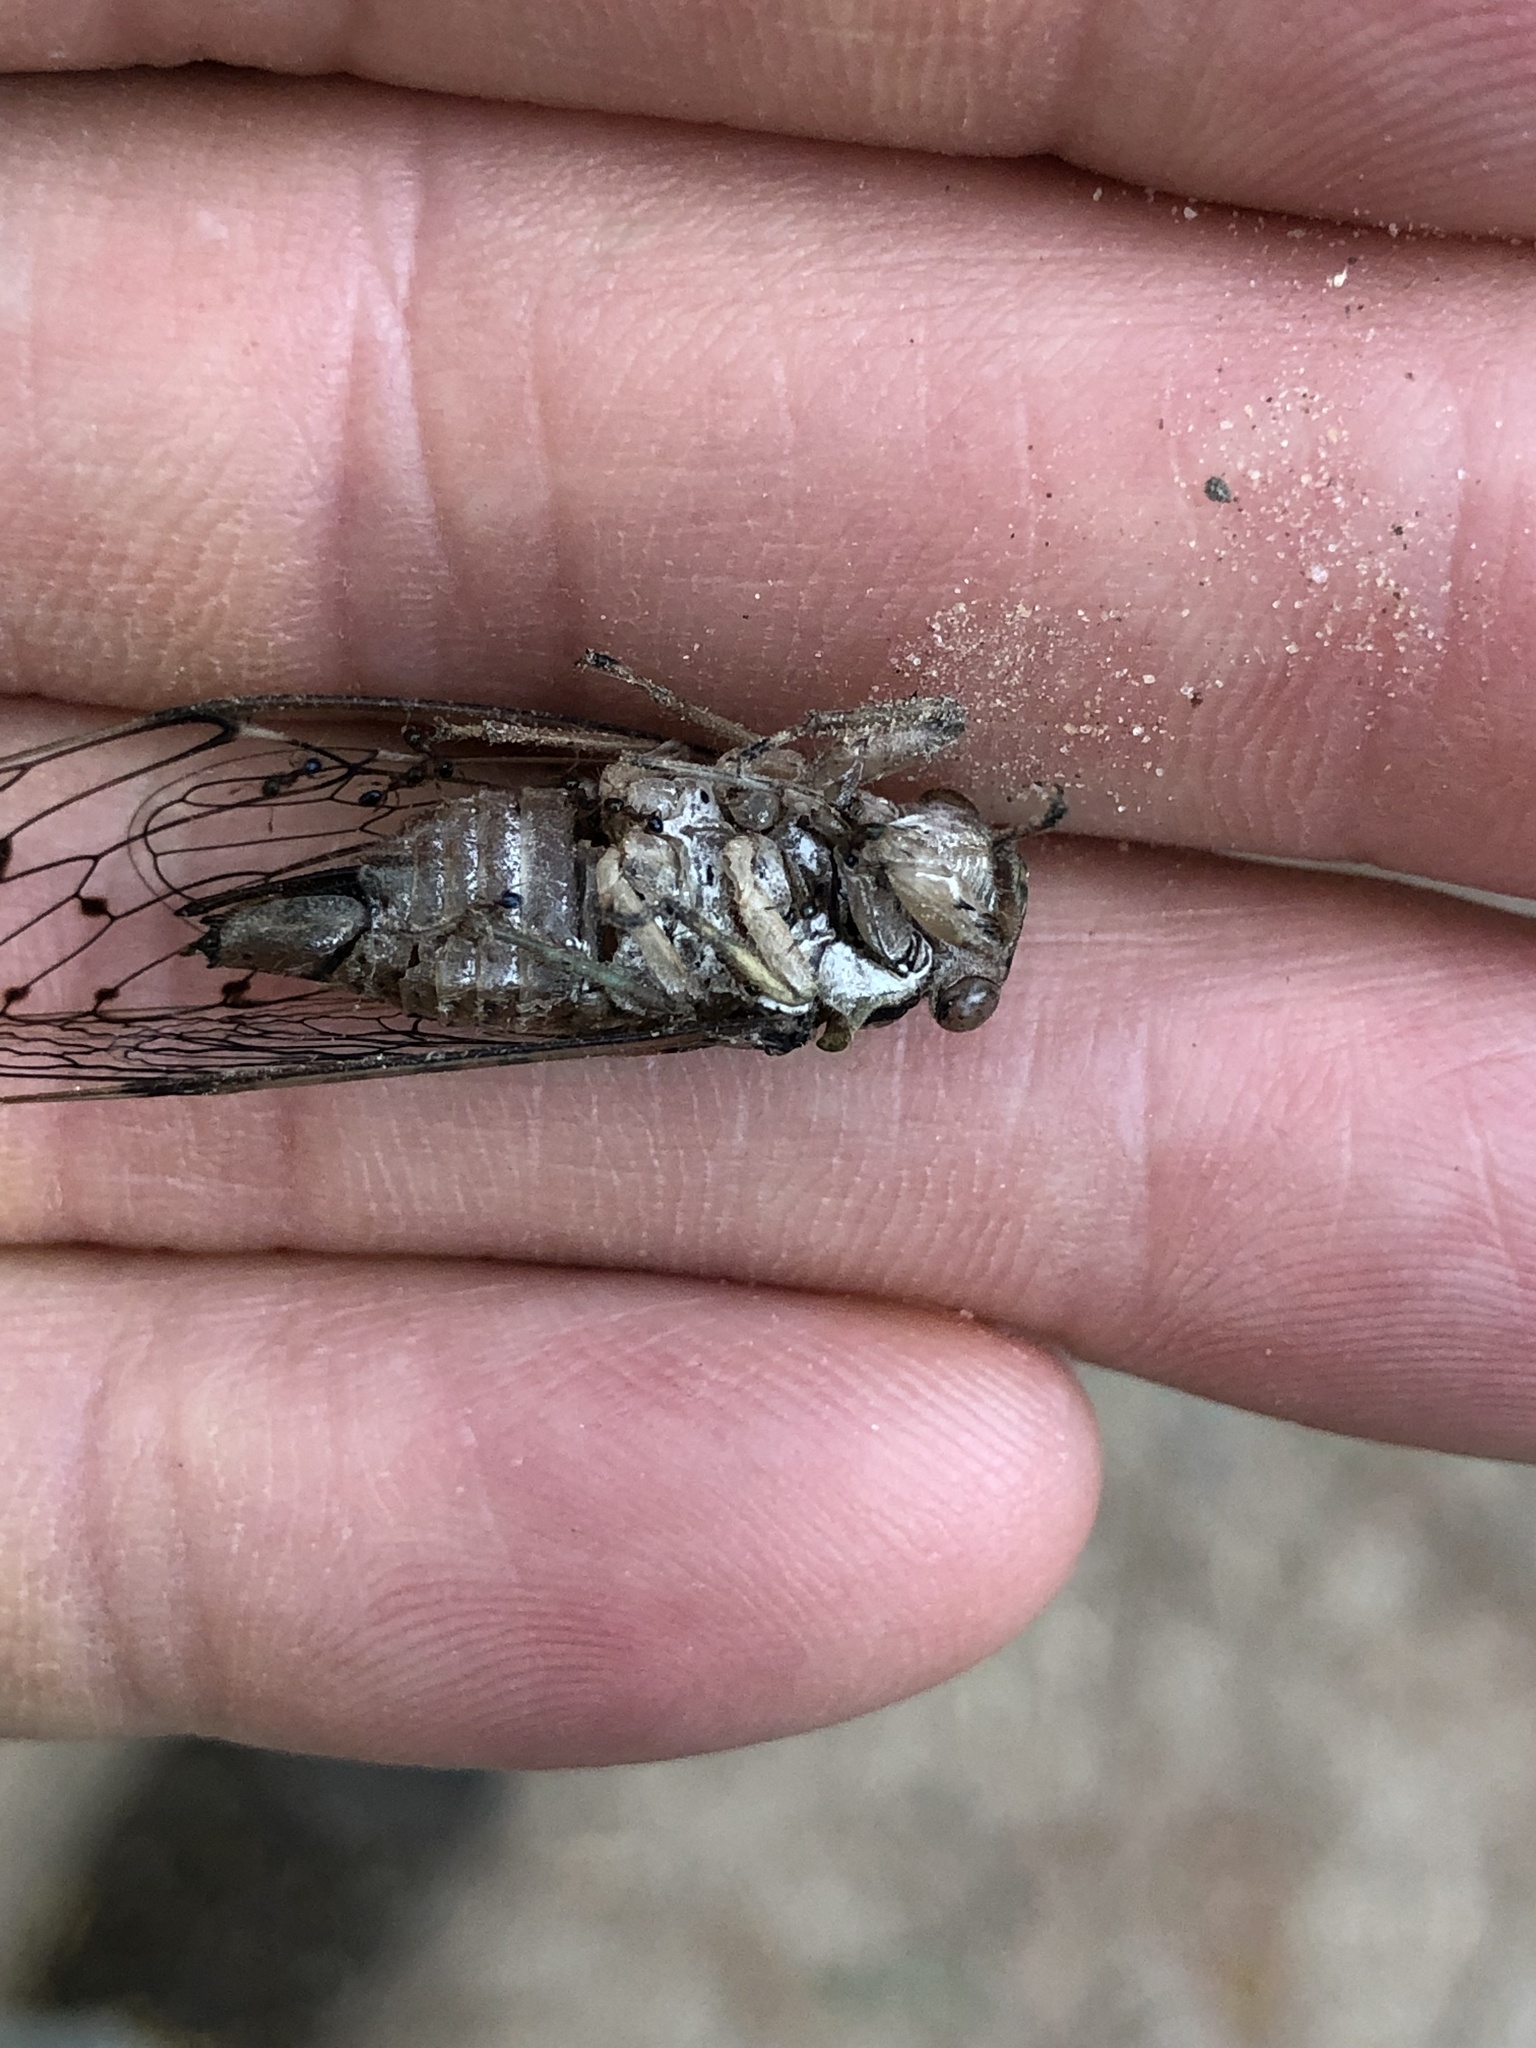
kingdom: Animalia
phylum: Arthropoda
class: Insecta
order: Hemiptera
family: Cicadidae
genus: Neocicada
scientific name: Neocicada hieroglyphica
